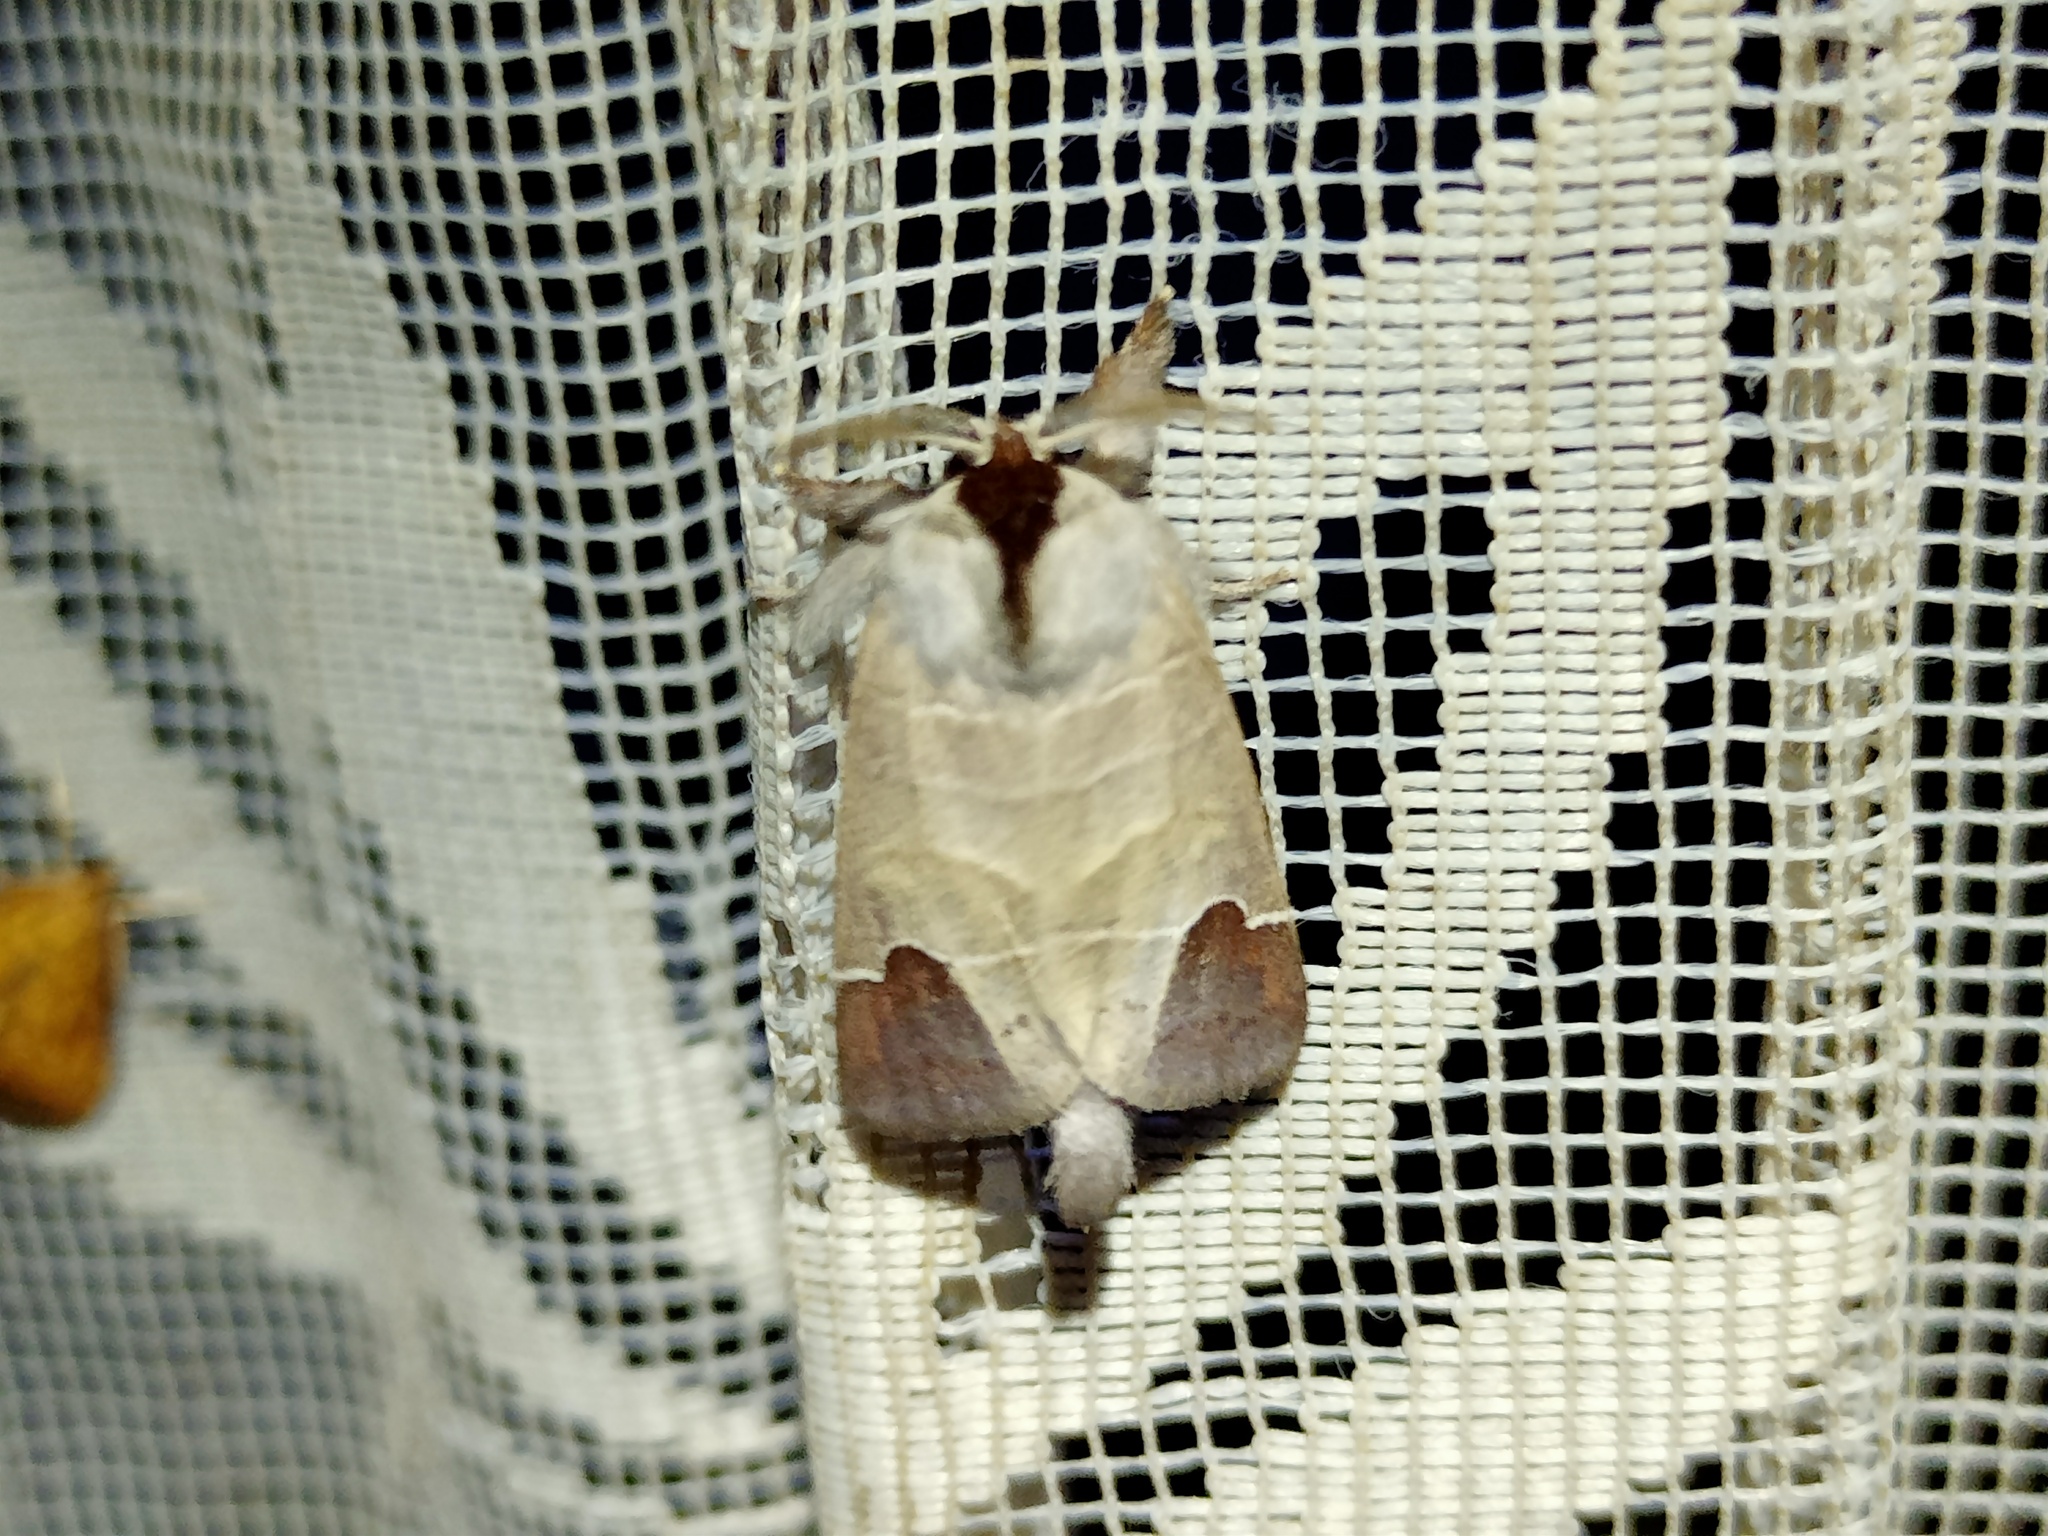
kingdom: Animalia
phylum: Arthropoda
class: Insecta
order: Lepidoptera
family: Notodontidae
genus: Clostera
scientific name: Clostera curtula
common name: Chocolate-tip
